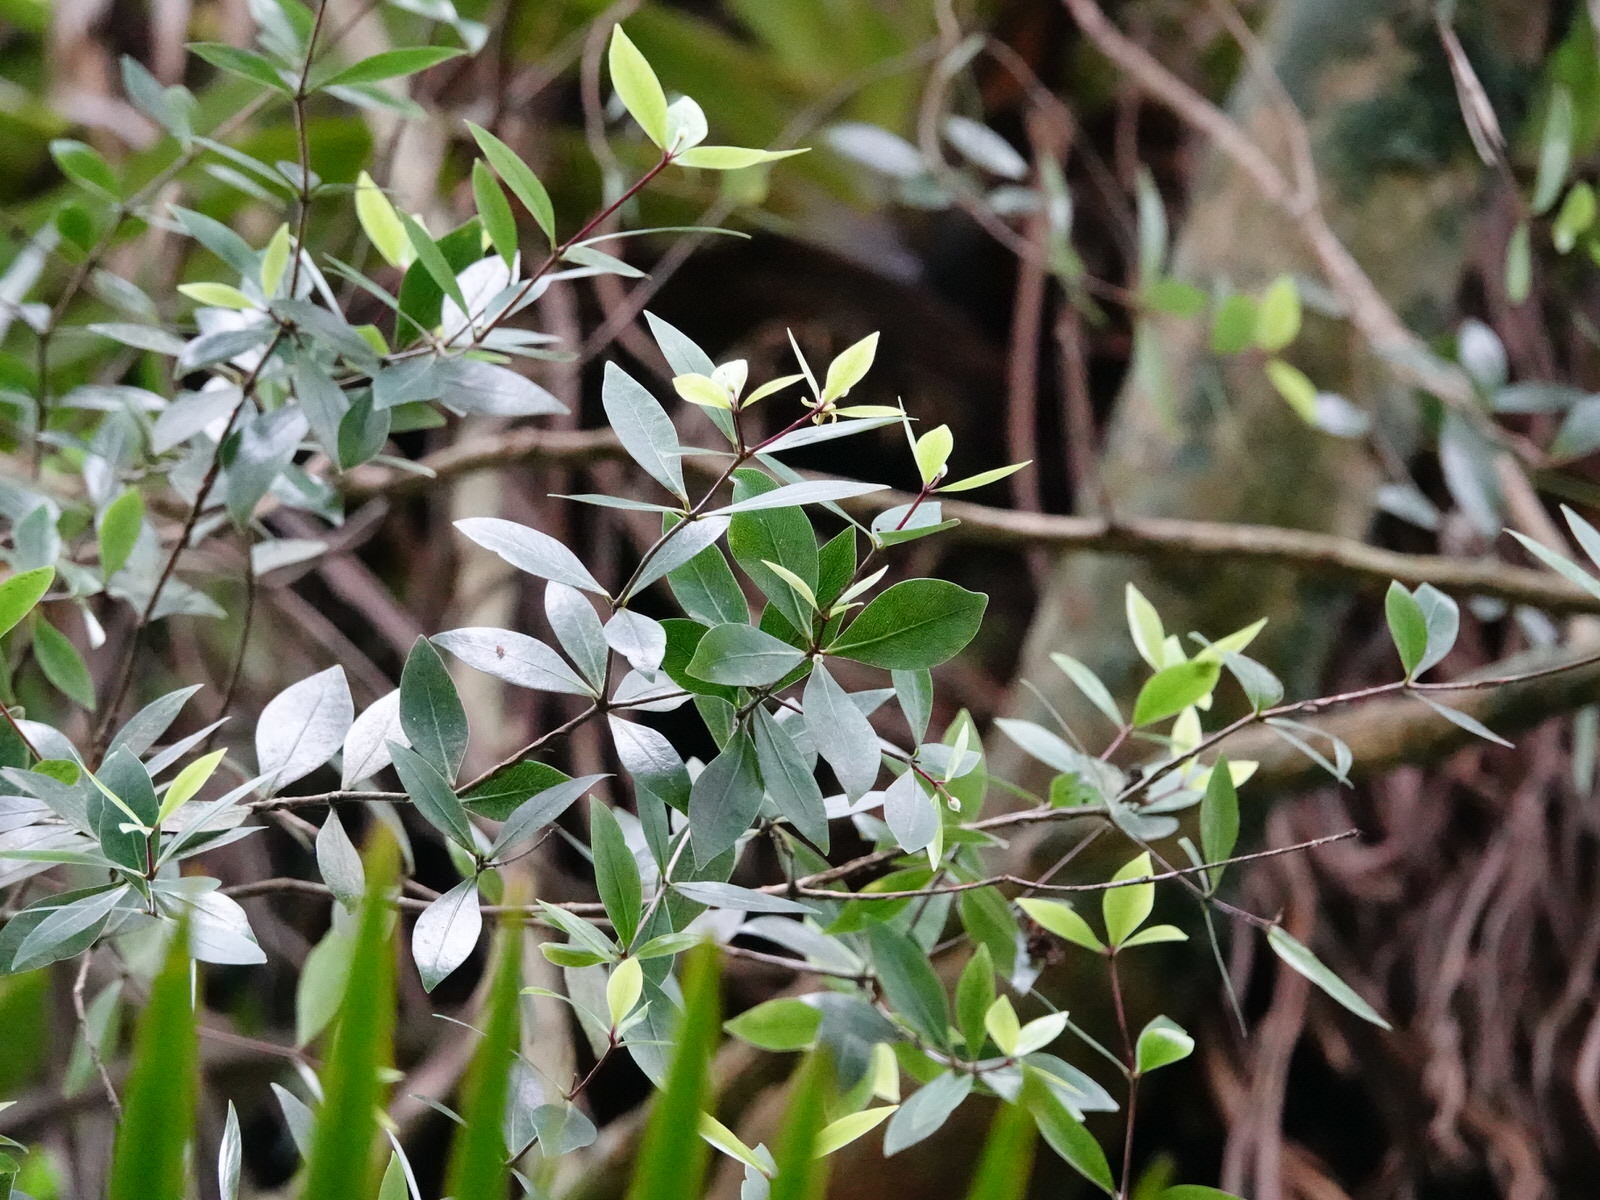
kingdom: Plantae
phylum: Tracheophyta
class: Magnoliopsida
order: Apiales
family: Pittosporaceae
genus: Pittosporum
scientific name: Pittosporum cornifolium
